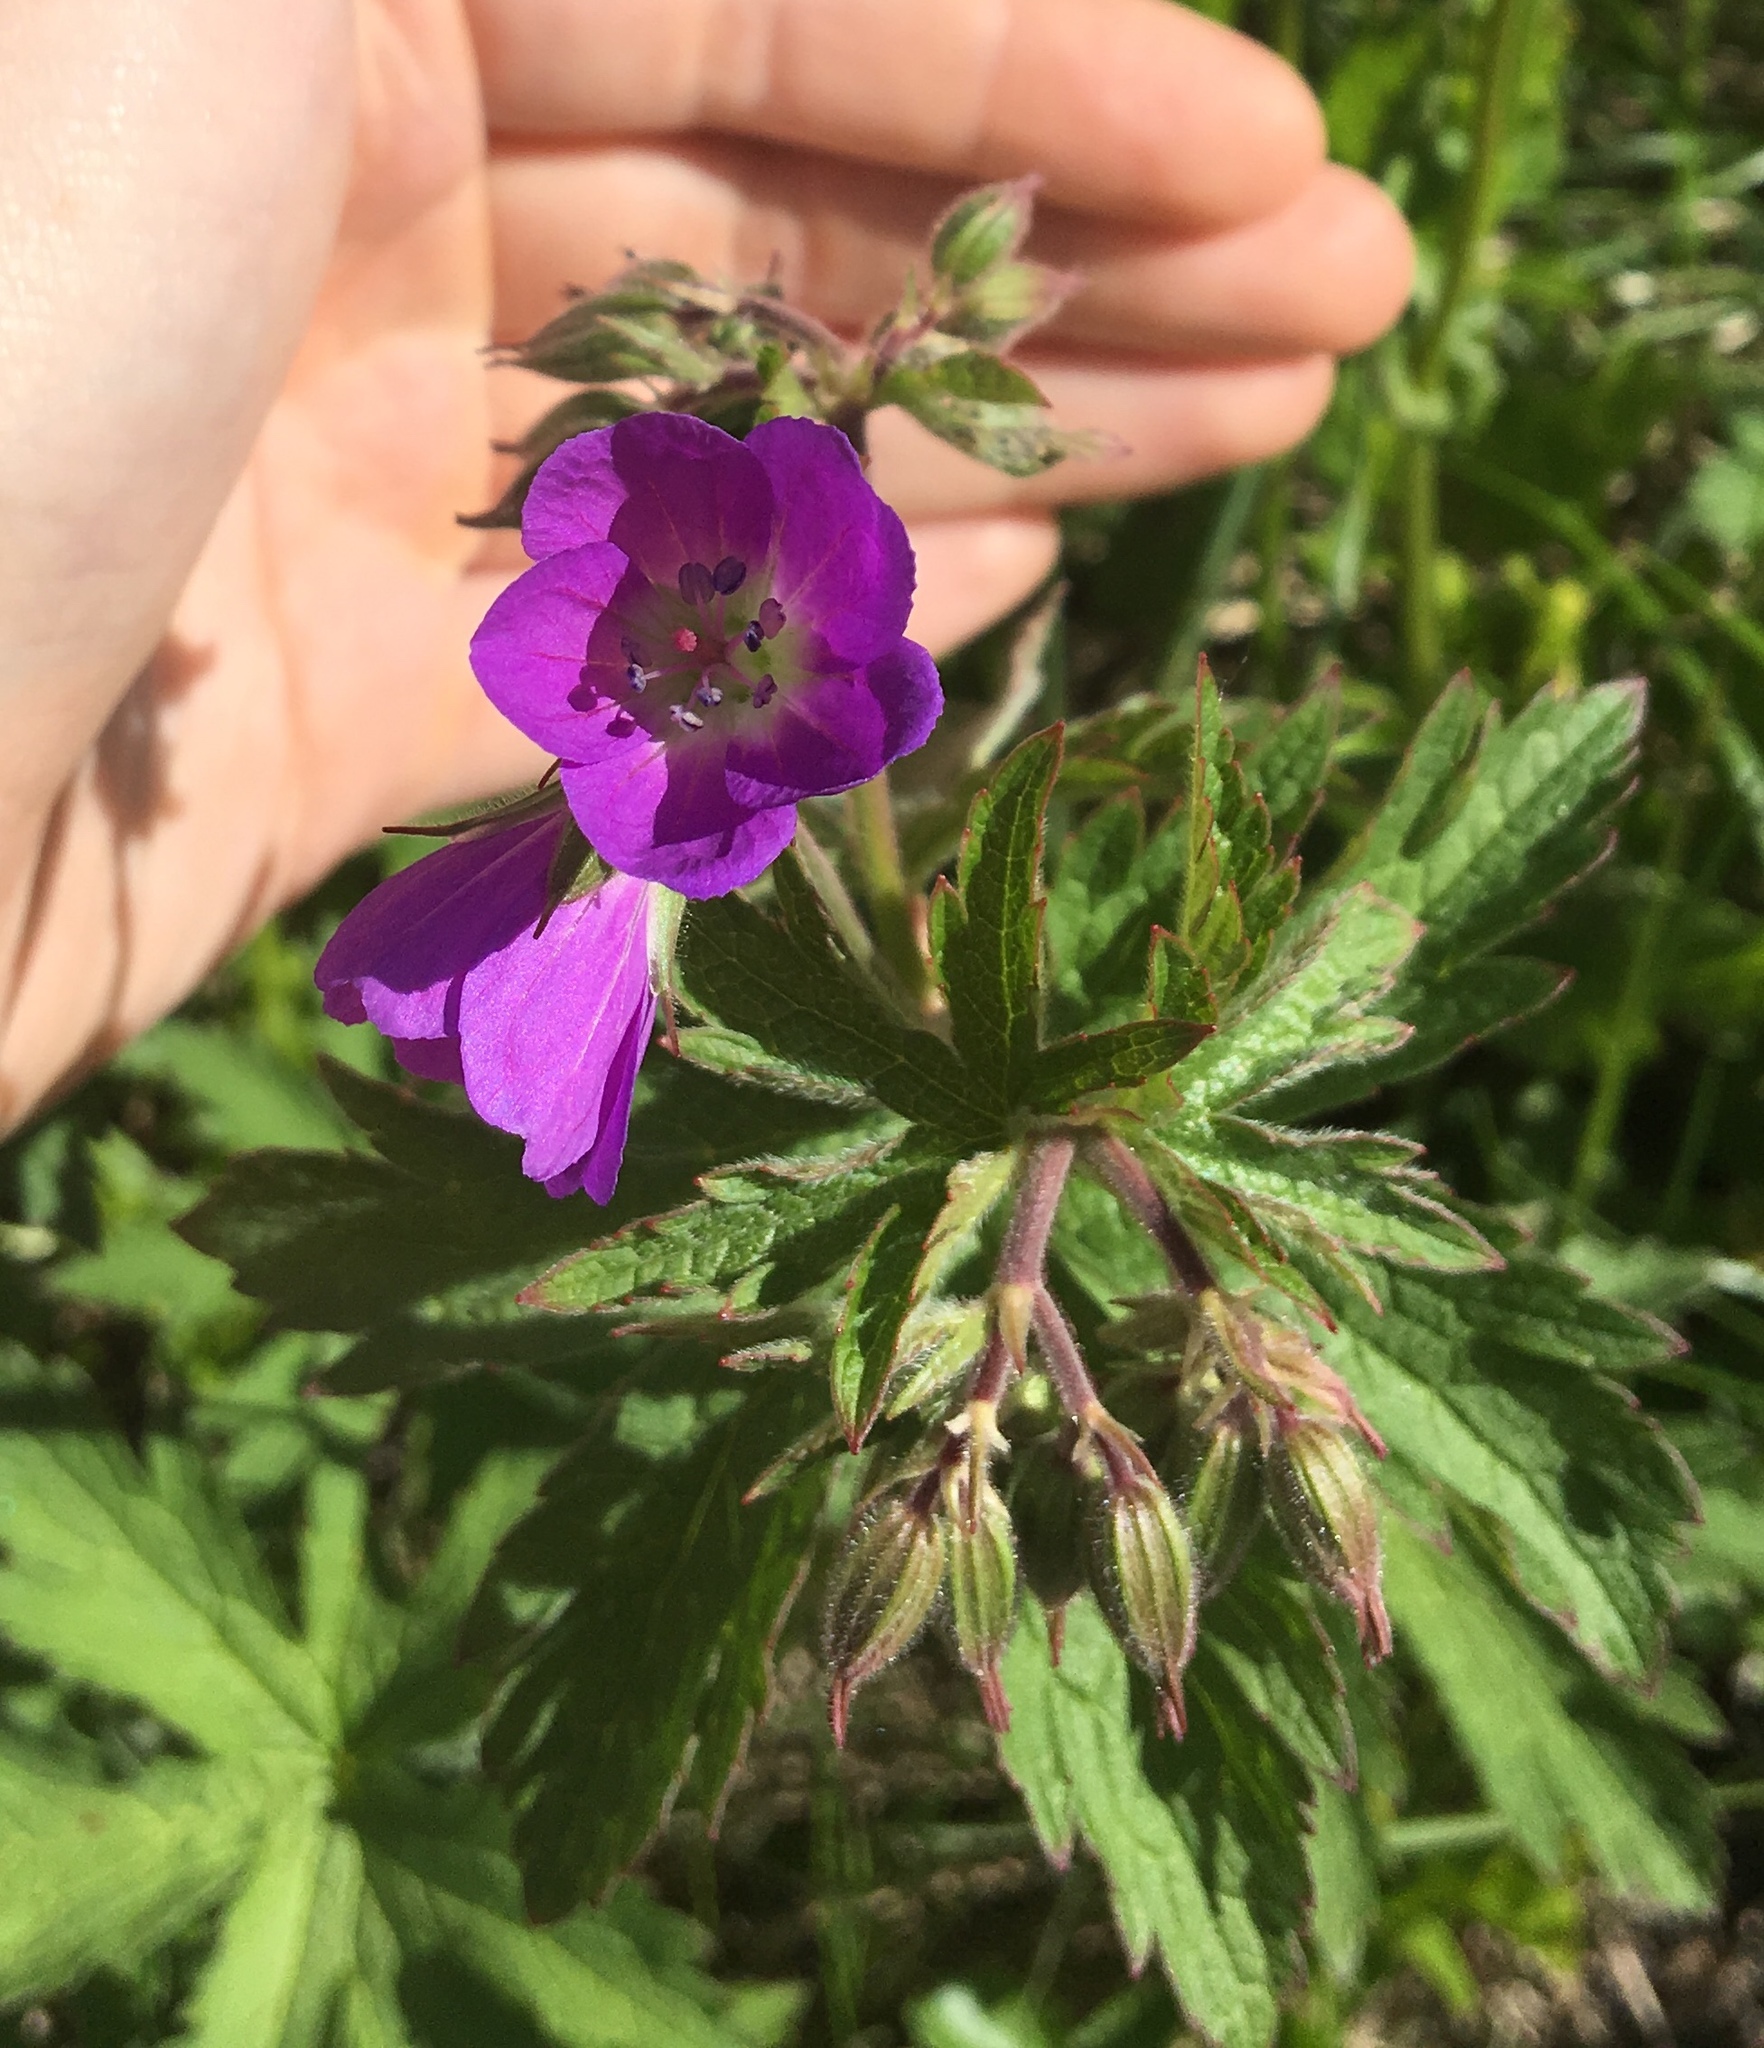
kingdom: Plantae
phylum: Tracheophyta
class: Magnoliopsida
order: Geraniales
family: Geraniaceae
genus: Geranium
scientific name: Geranium sylvaticum
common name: Wood crane's-bill
